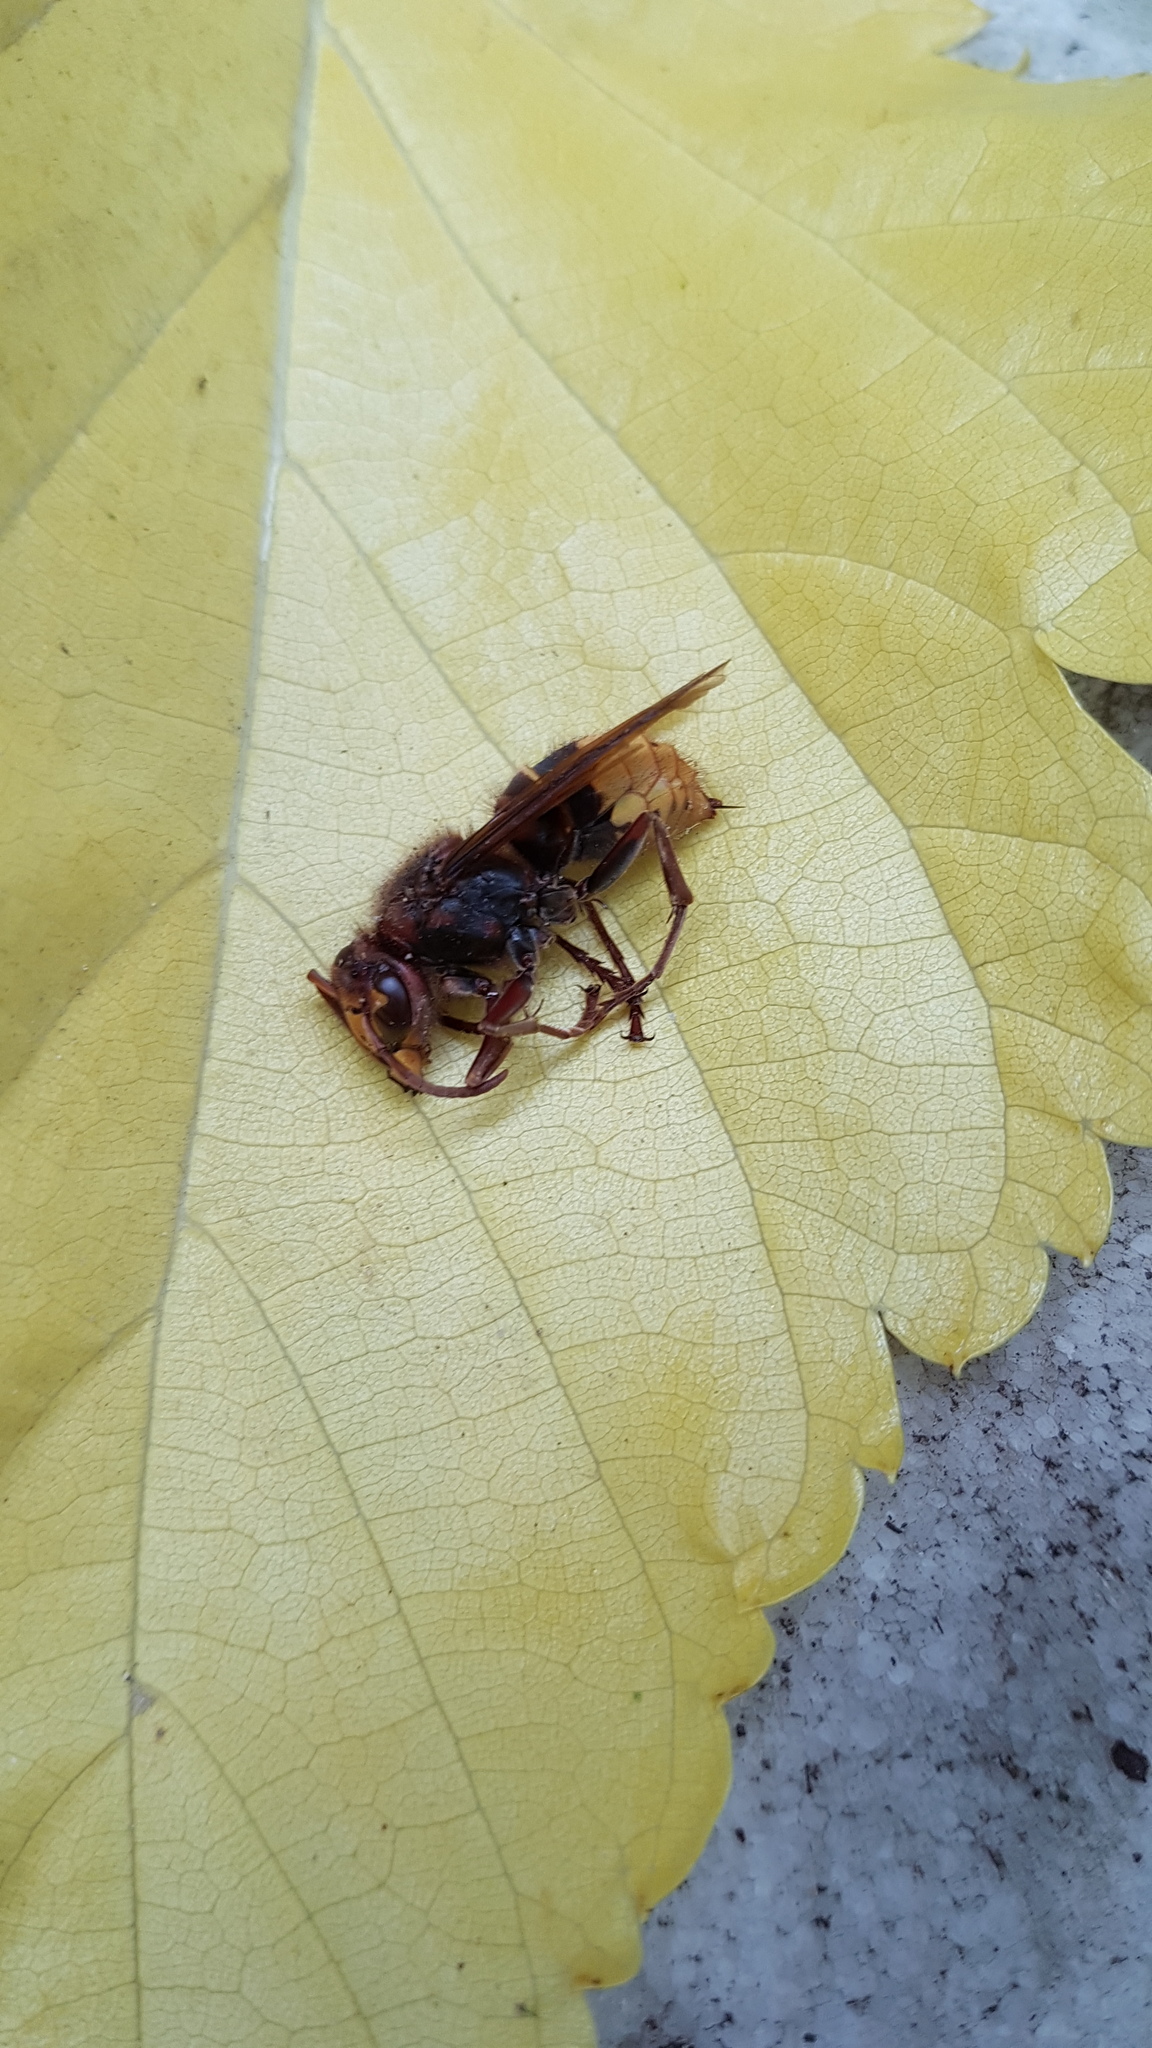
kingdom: Animalia
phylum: Arthropoda
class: Insecta
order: Hymenoptera
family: Vespidae
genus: Vespa
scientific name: Vespa crabro
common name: Hornet
